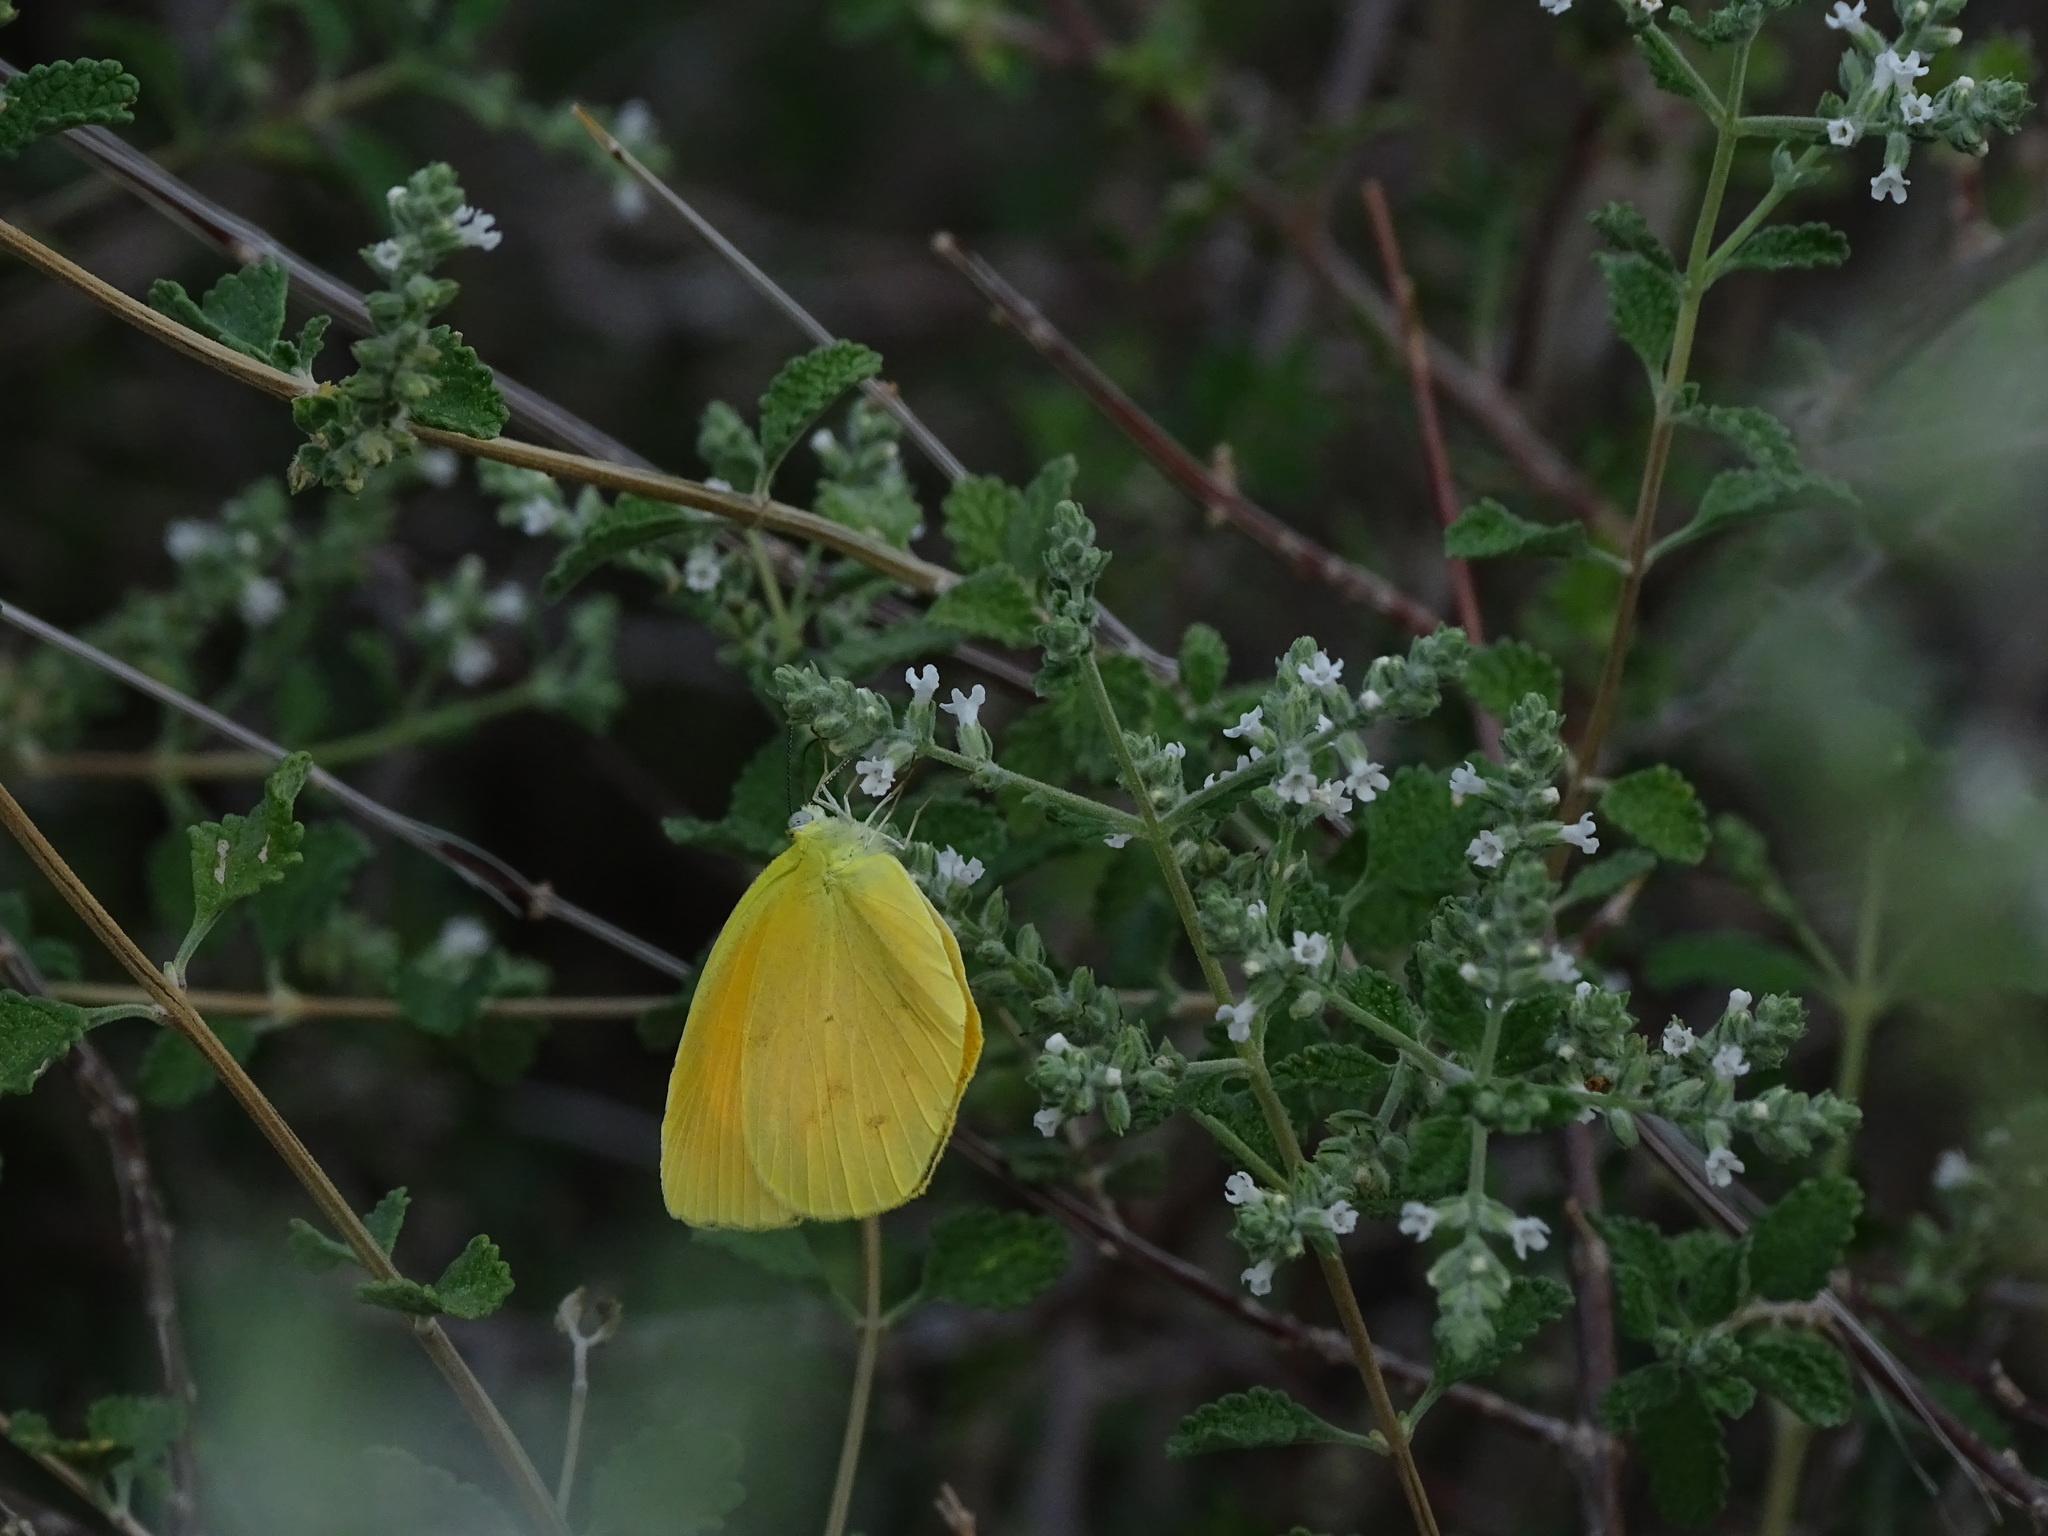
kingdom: Animalia
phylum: Arthropoda
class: Insecta
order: Lepidoptera
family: Pieridae
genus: Pyrisitia
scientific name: Pyrisitia proterpia
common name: Tailed orange
